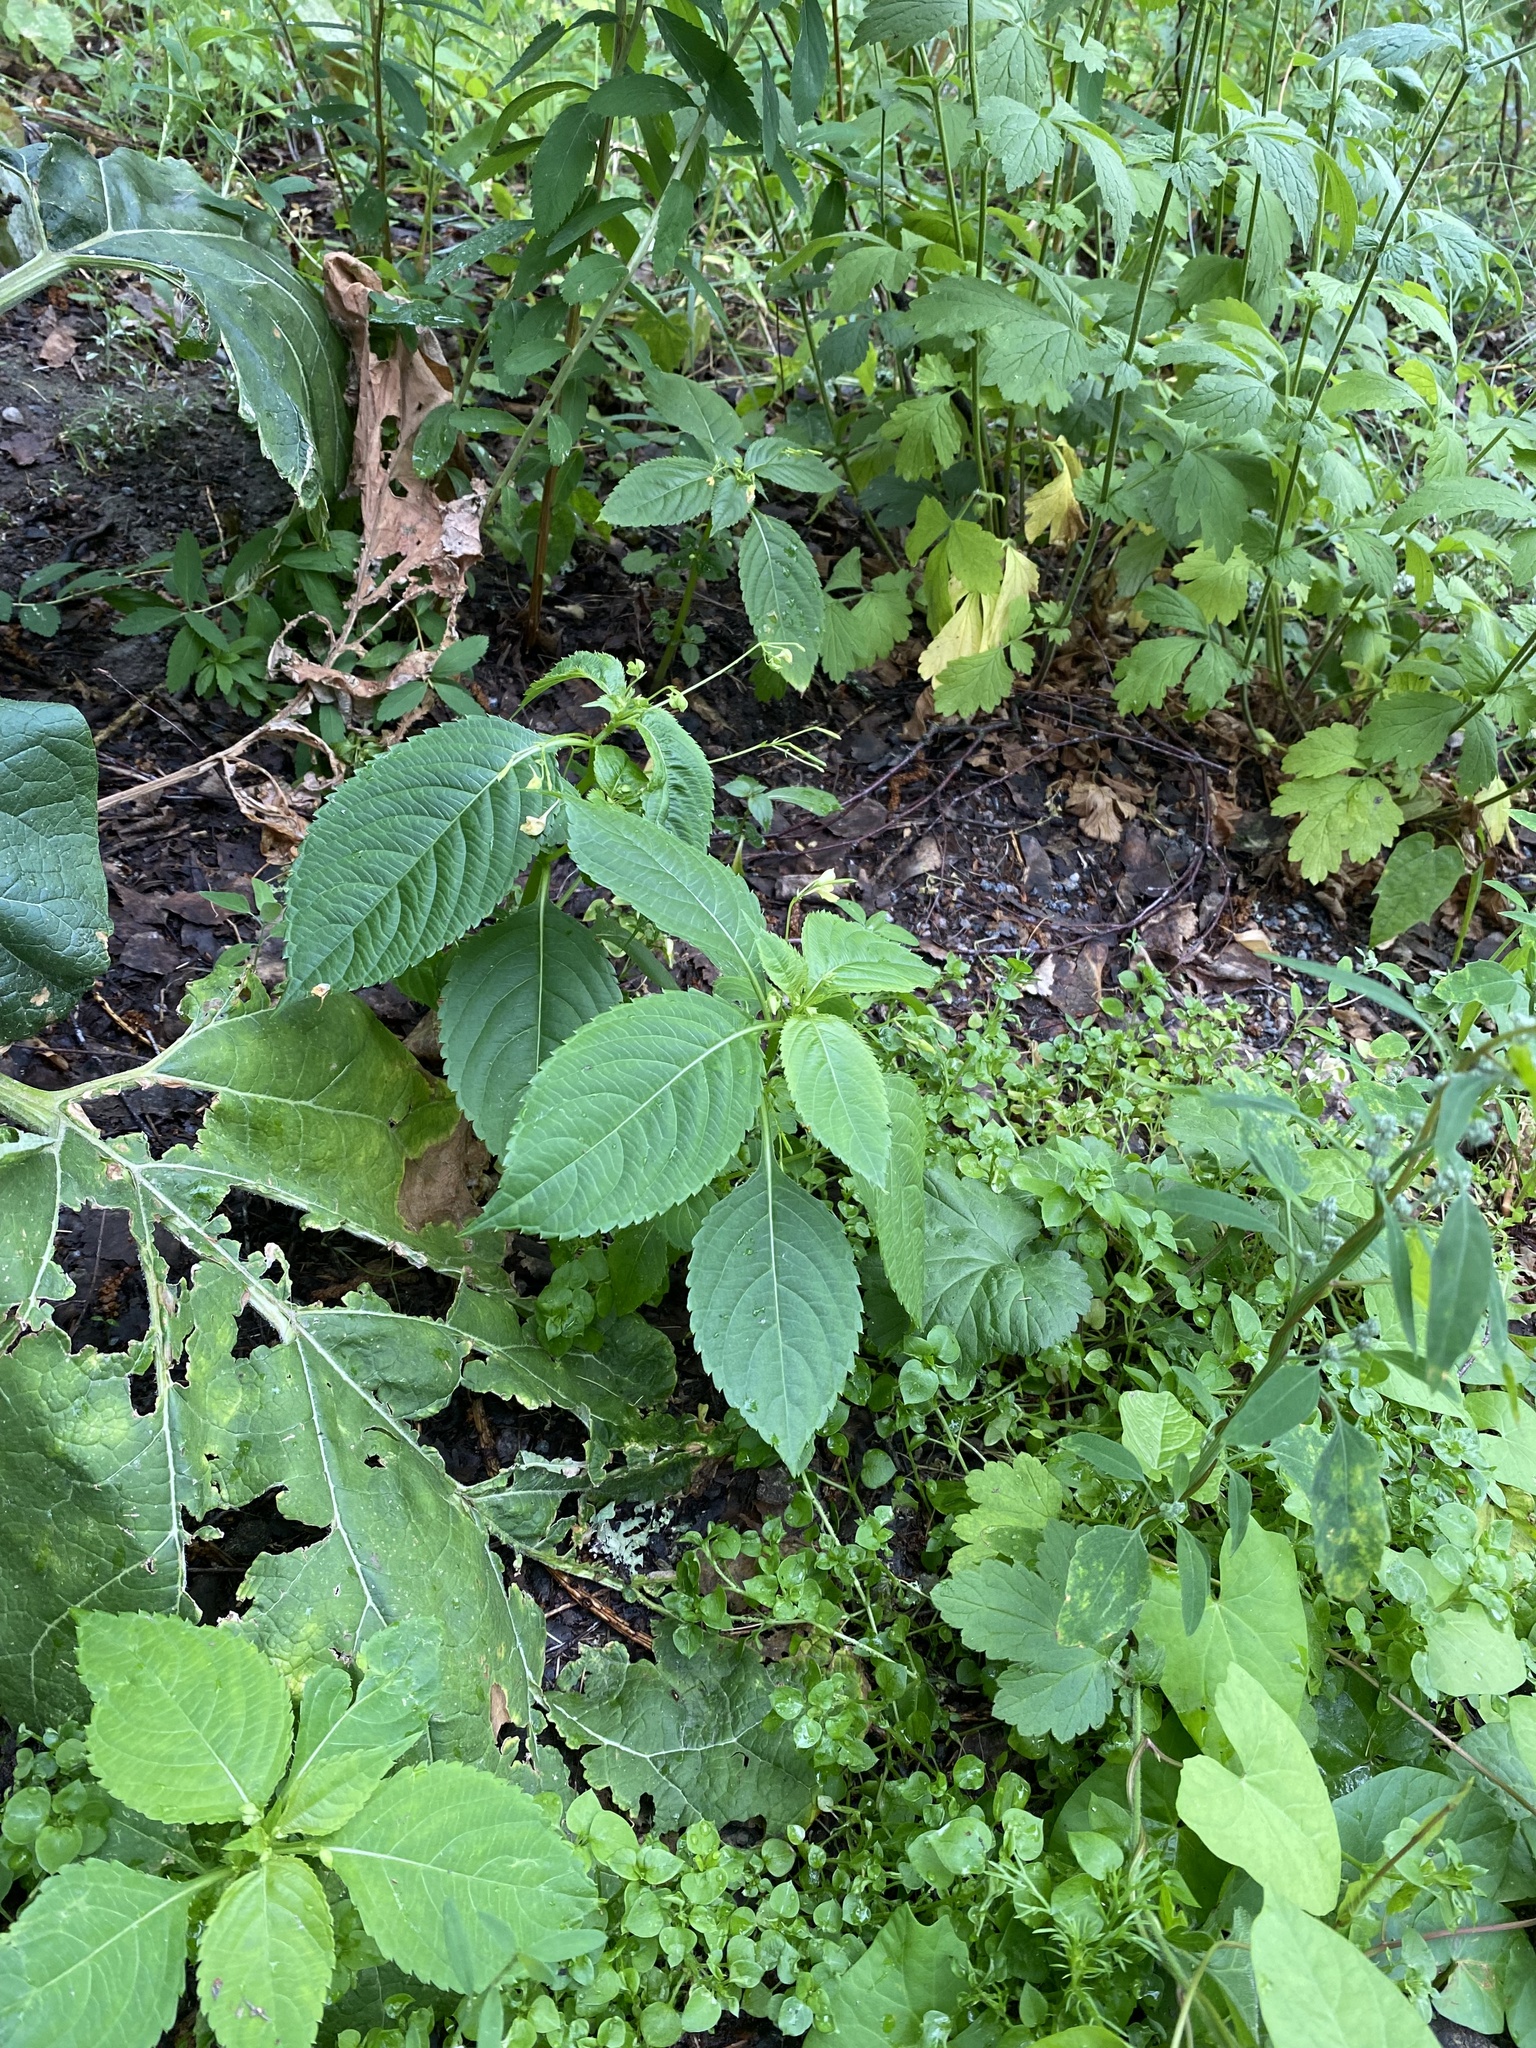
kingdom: Plantae
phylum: Tracheophyta
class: Magnoliopsida
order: Ericales
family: Balsaminaceae
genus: Impatiens
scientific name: Impatiens parviflora
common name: Small balsam
